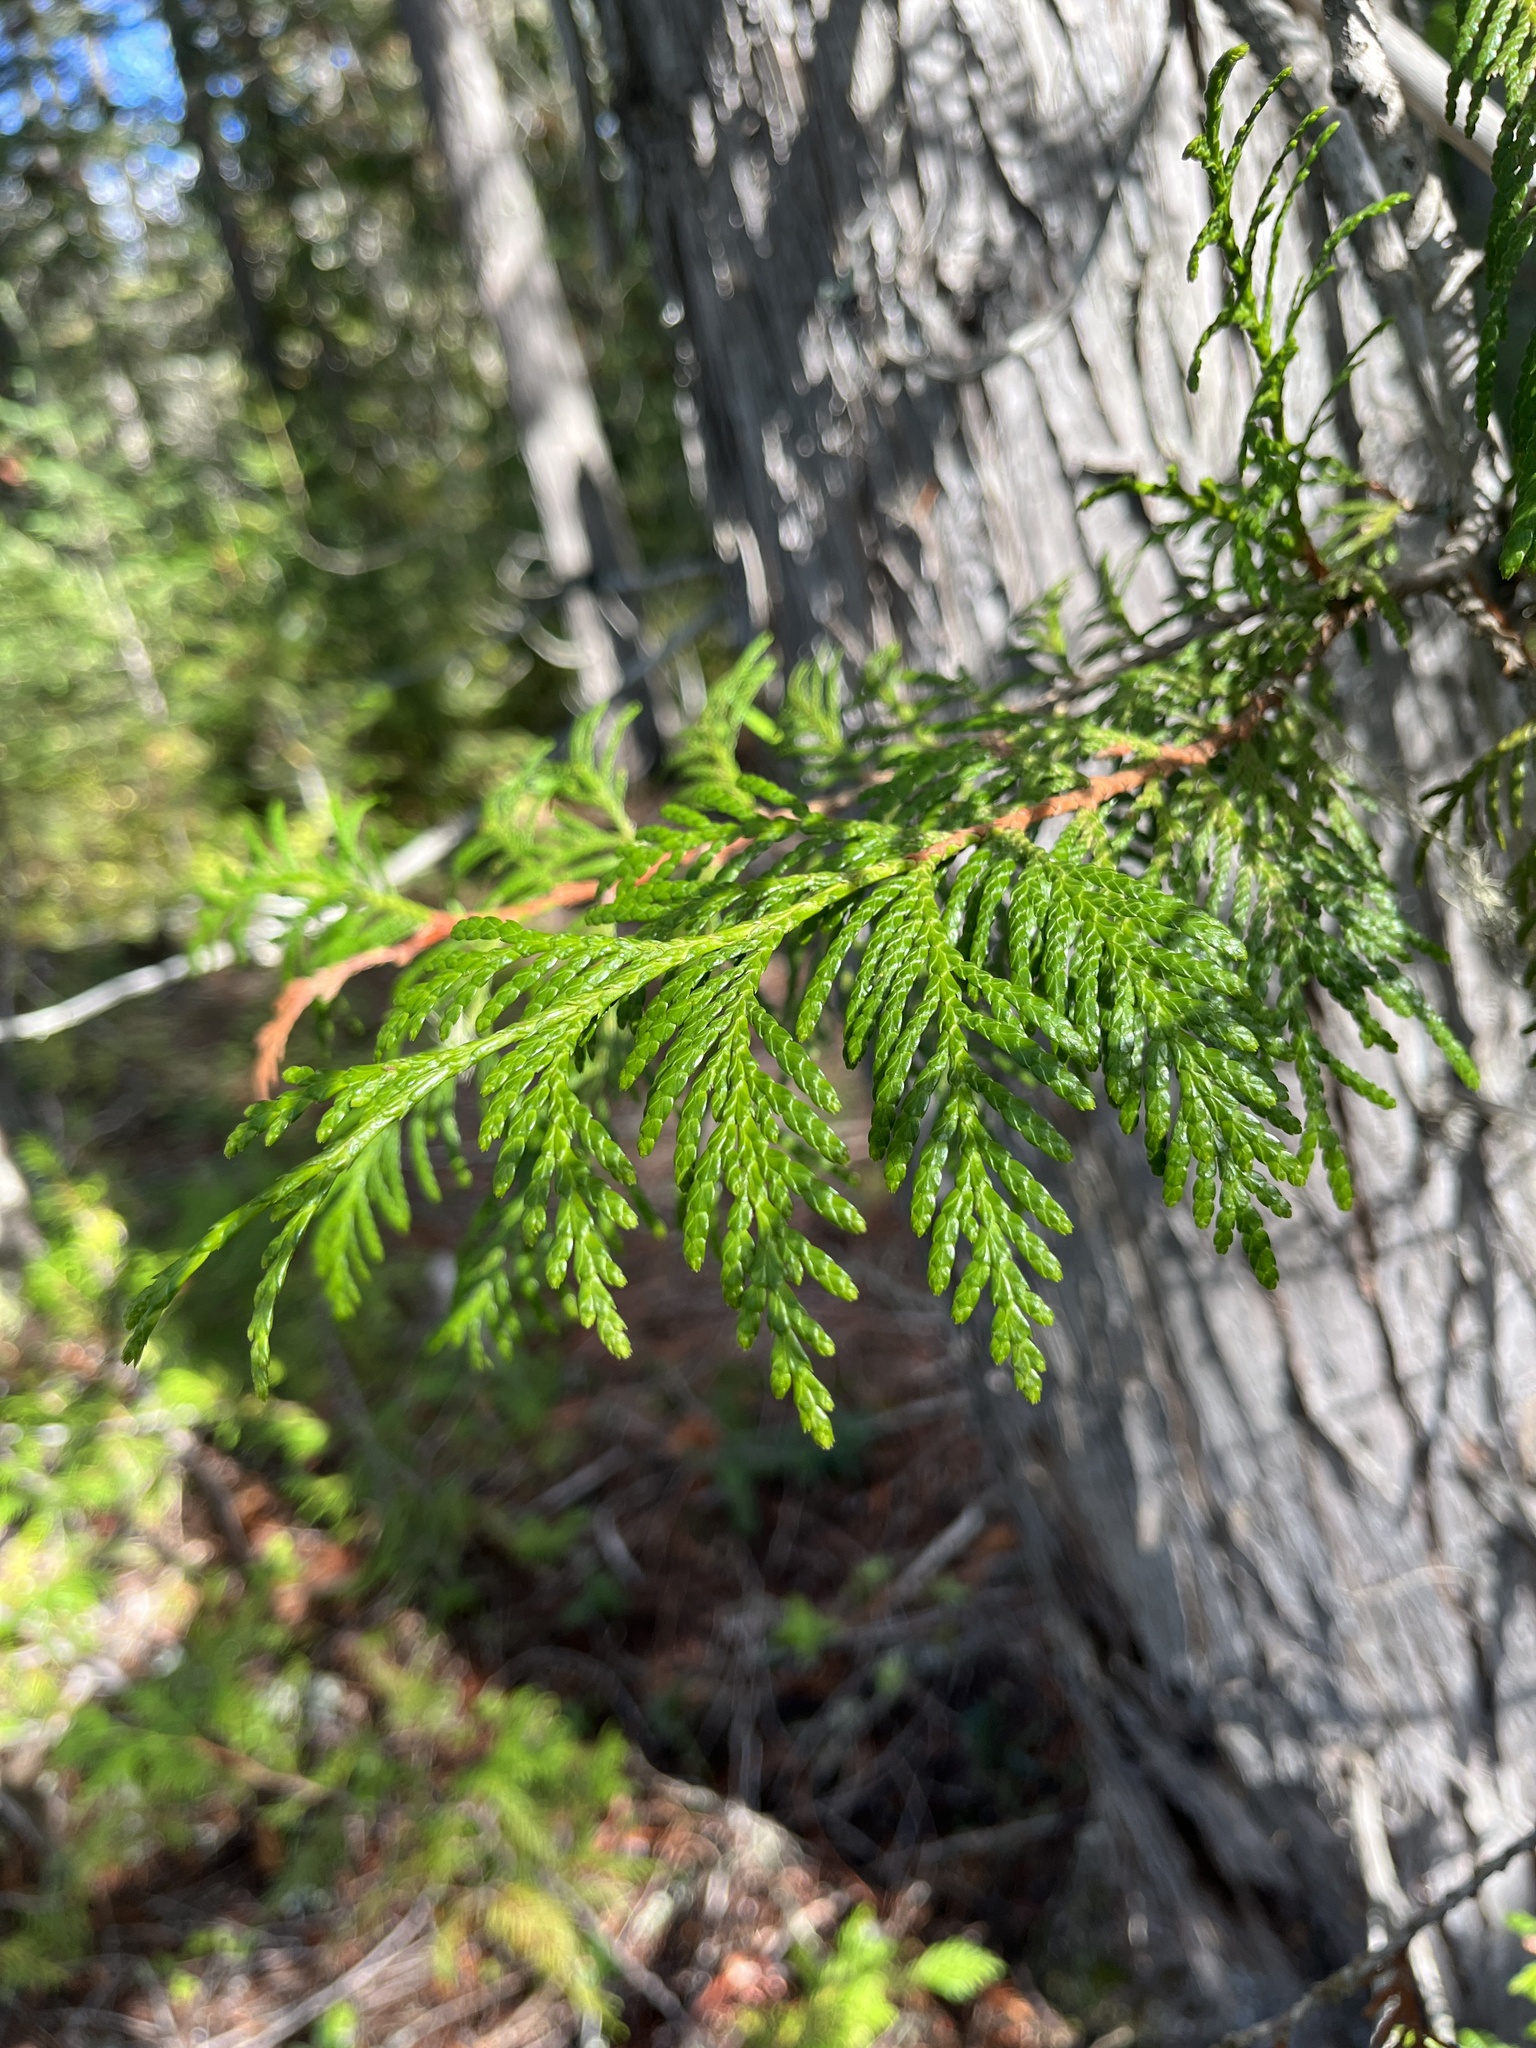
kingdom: Plantae
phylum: Tracheophyta
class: Pinopsida
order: Pinales
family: Cupressaceae
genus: Thuja
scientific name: Thuja plicata
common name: Western red-cedar
